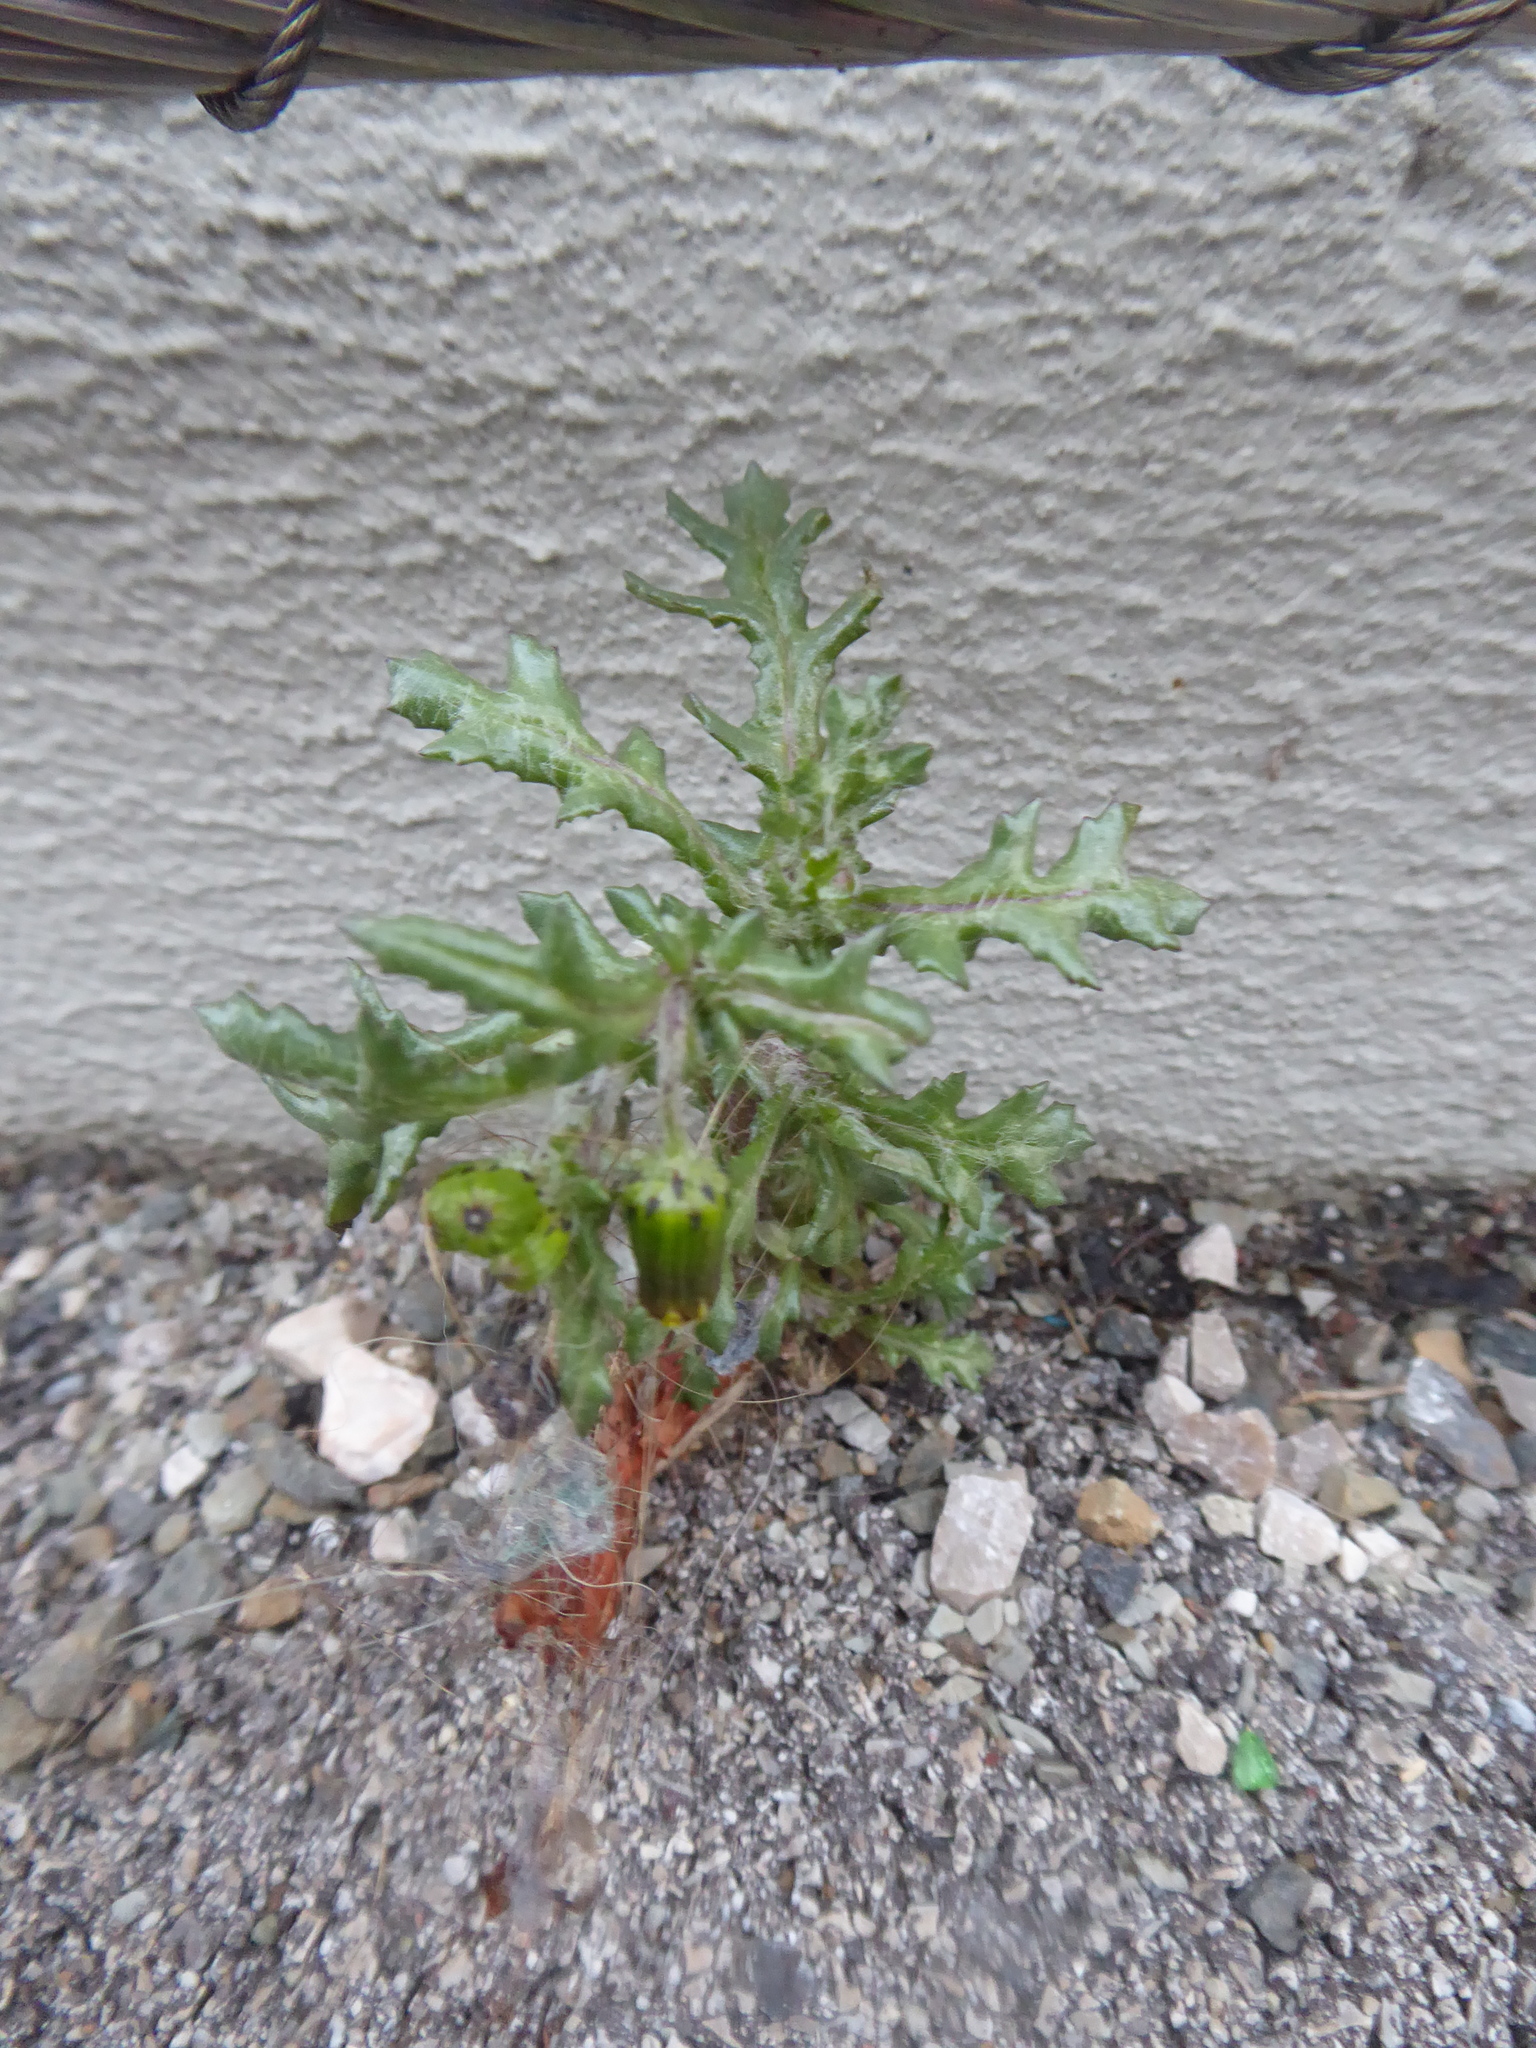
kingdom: Plantae
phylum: Tracheophyta
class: Magnoliopsida
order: Asterales
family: Asteraceae
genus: Senecio
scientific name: Senecio vulgaris
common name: Old-man-in-the-spring
